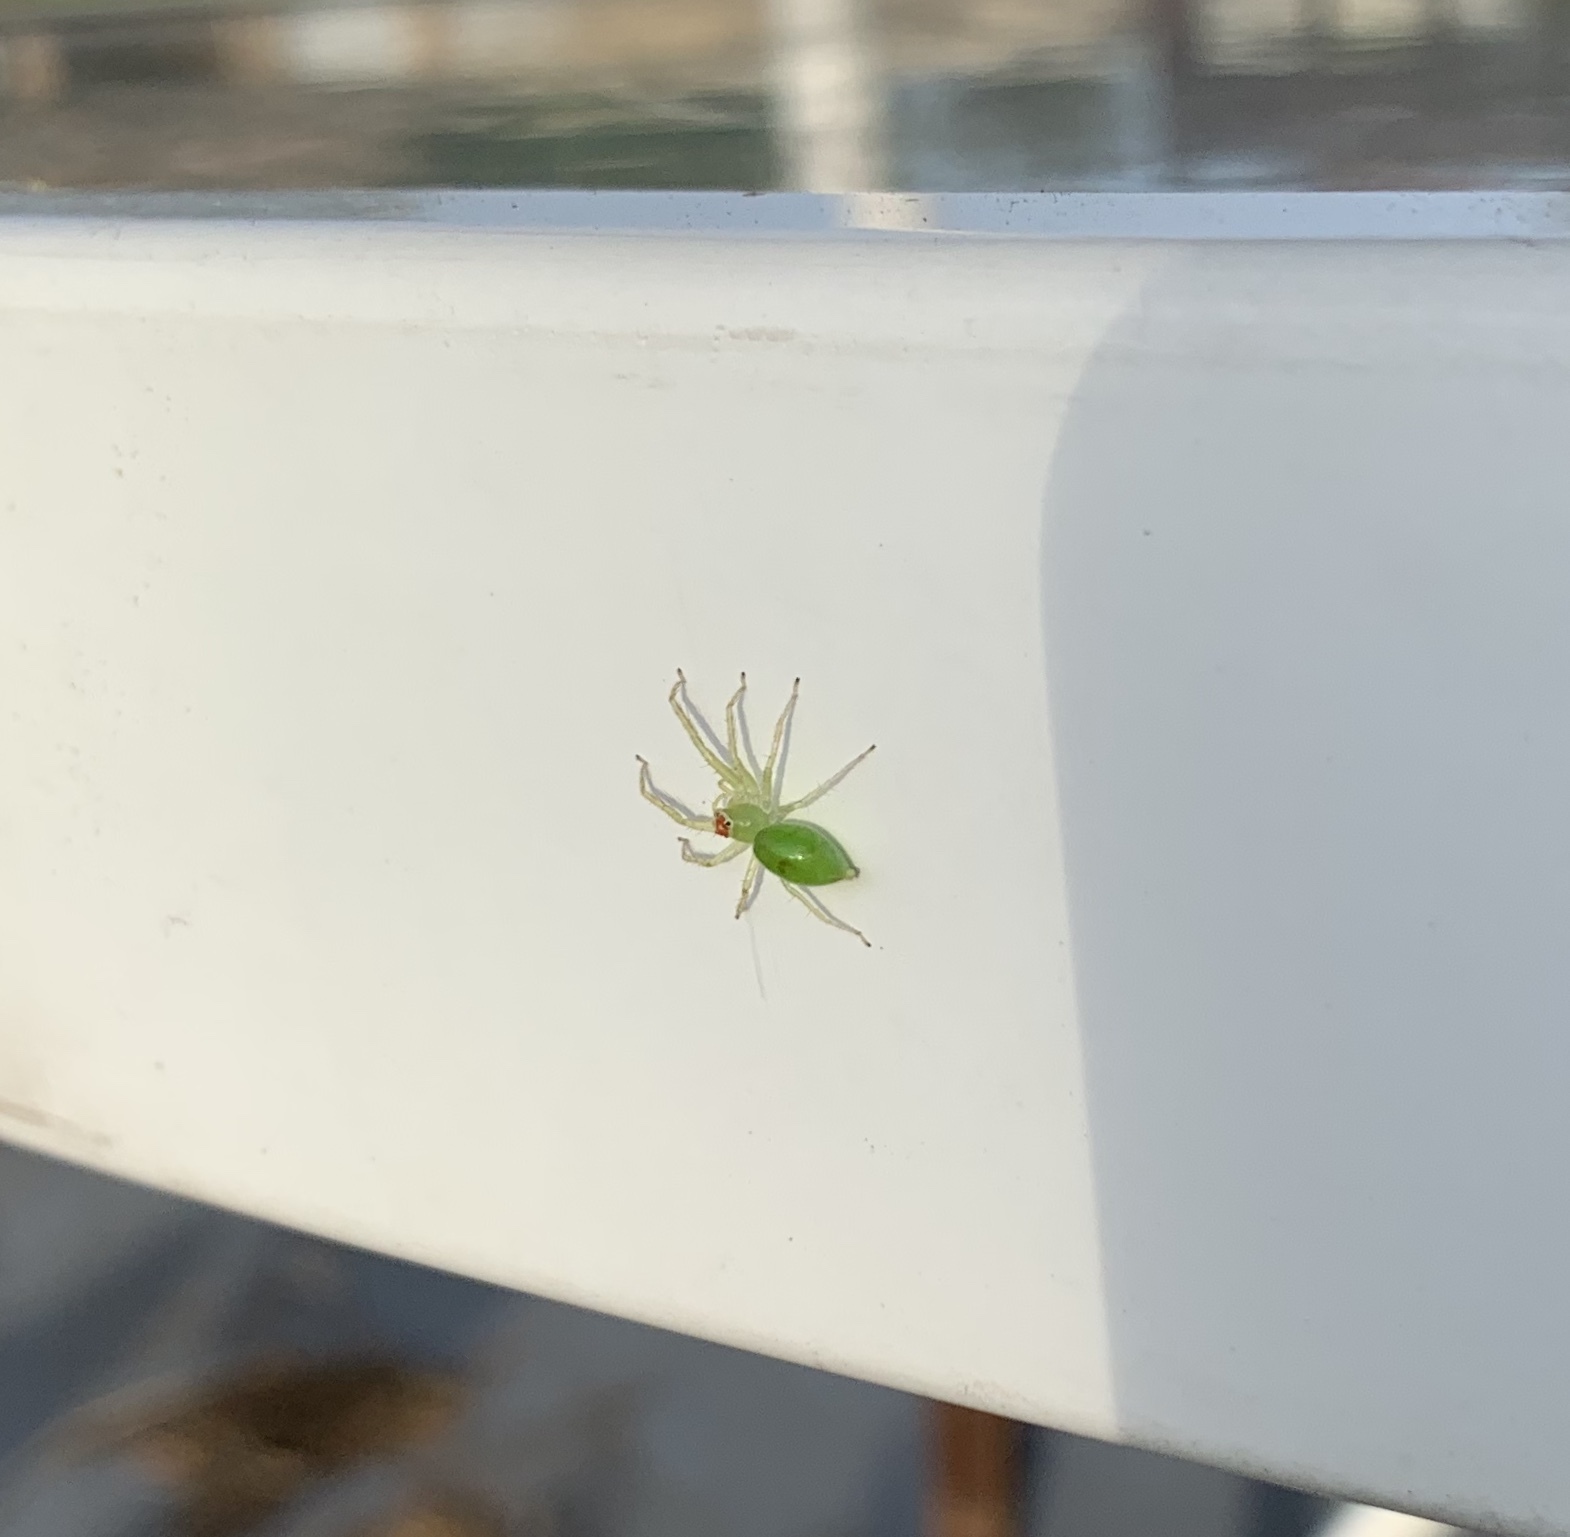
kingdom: Animalia
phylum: Arthropoda
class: Arachnida
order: Araneae
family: Salticidae
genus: Lyssomanes
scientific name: Lyssomanes viridis
